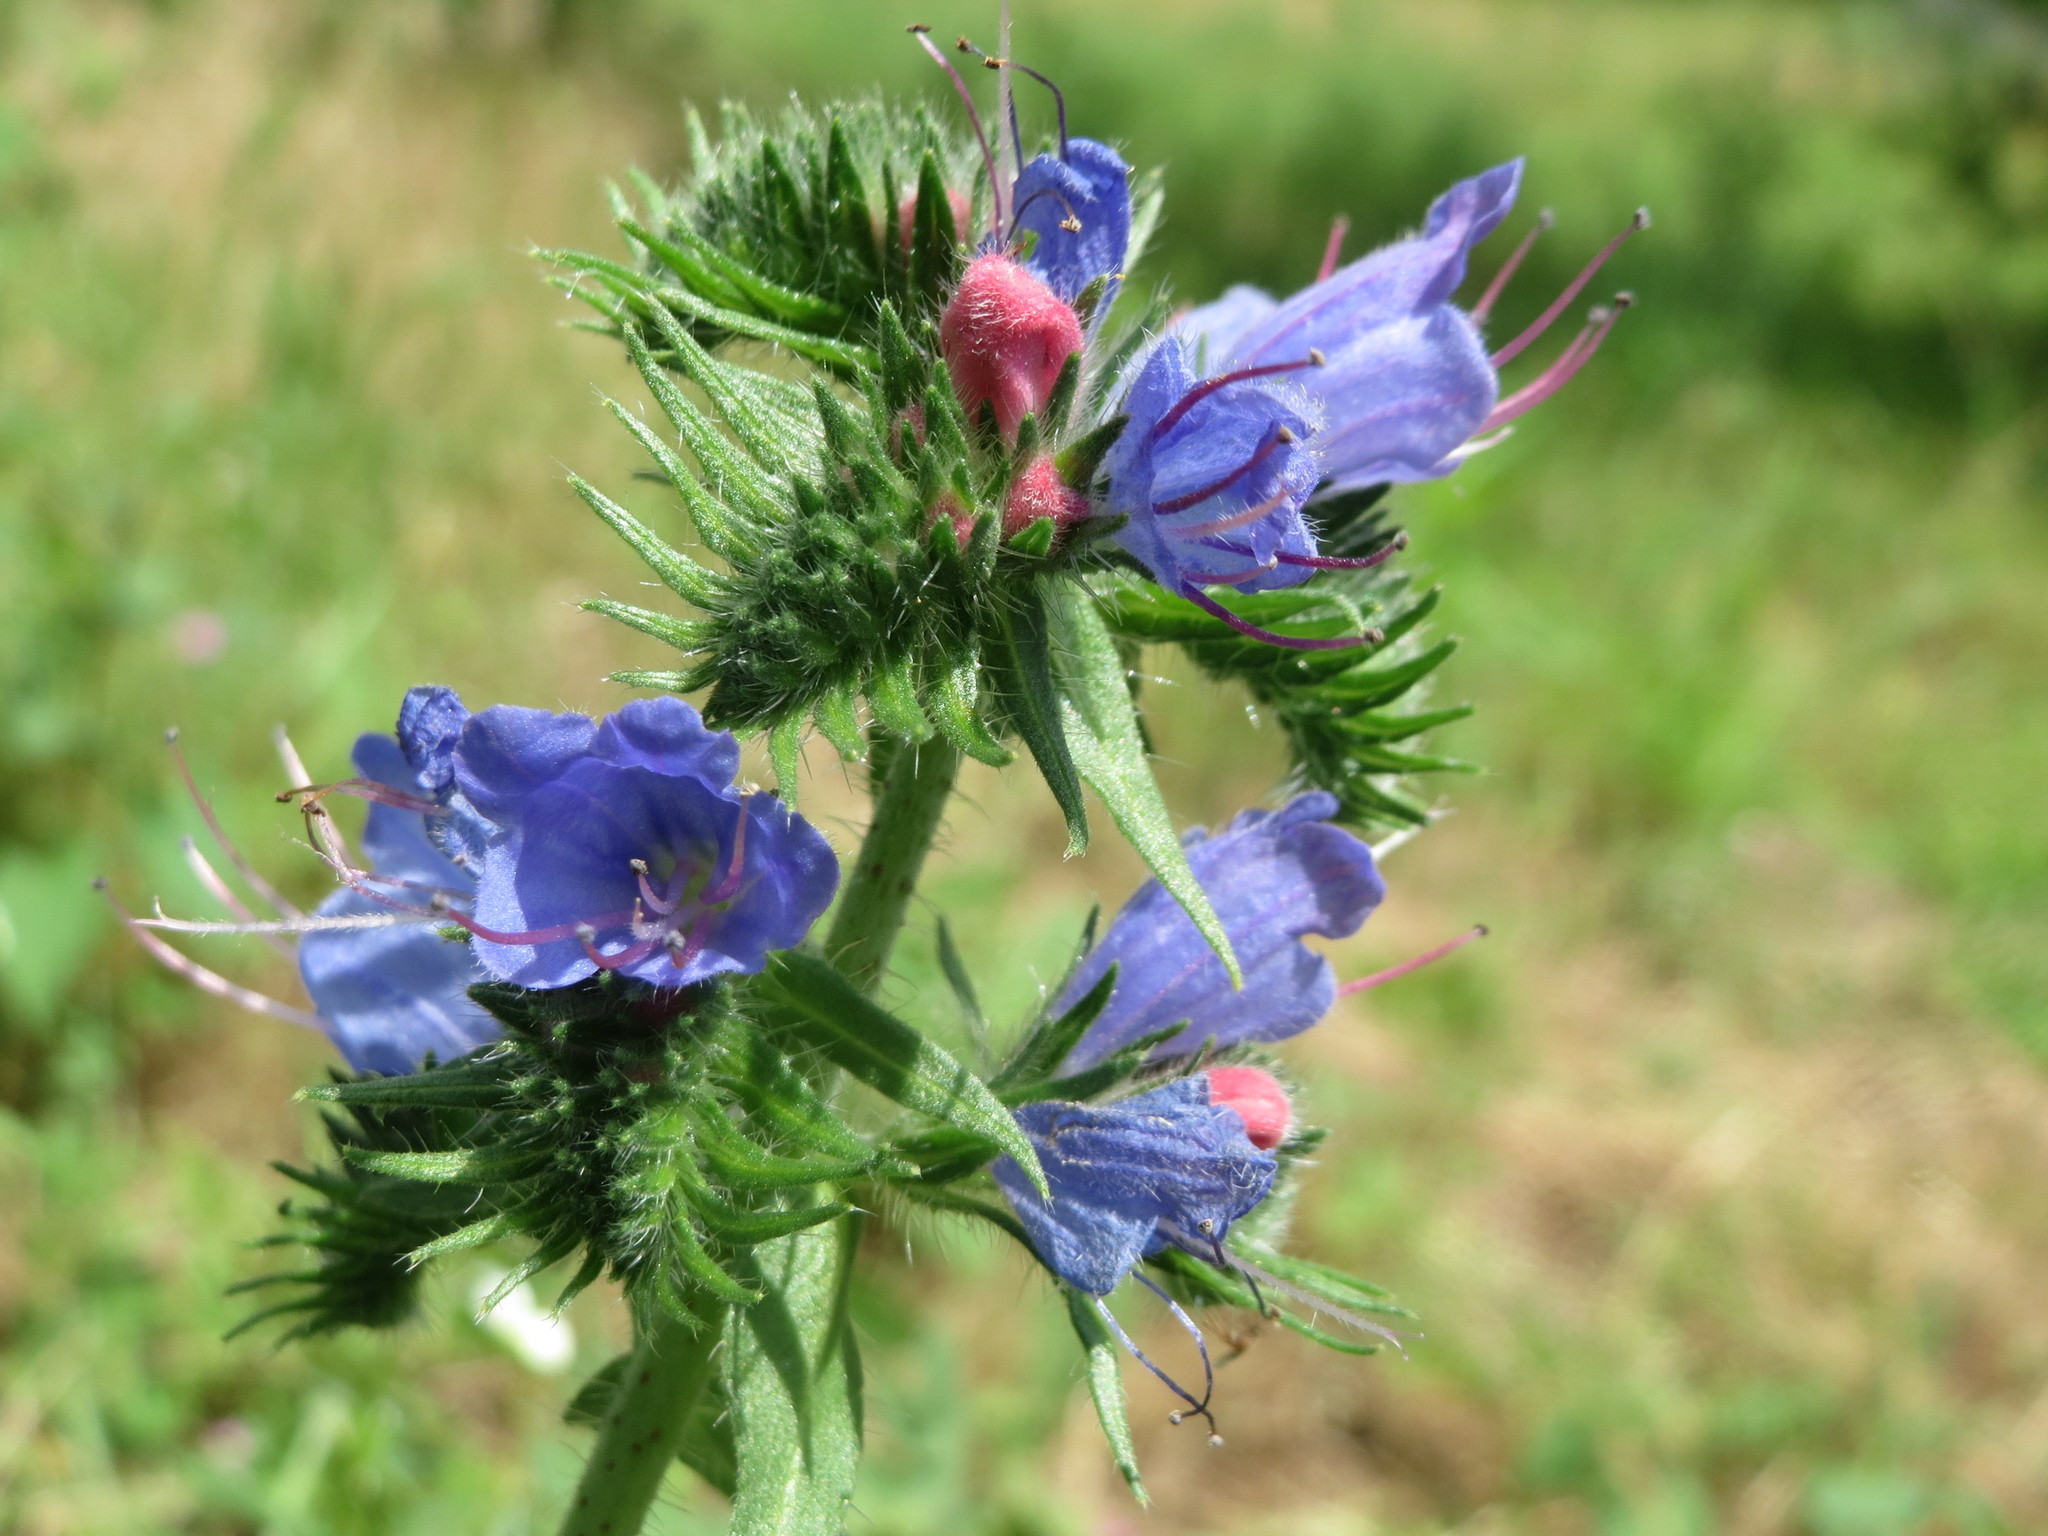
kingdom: Plantae
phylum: Tracheophyta
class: Magnoliopsida
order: Boraginales
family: Boraginaceae
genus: Echium
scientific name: Echium vulgare
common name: Common viper's bugloss
